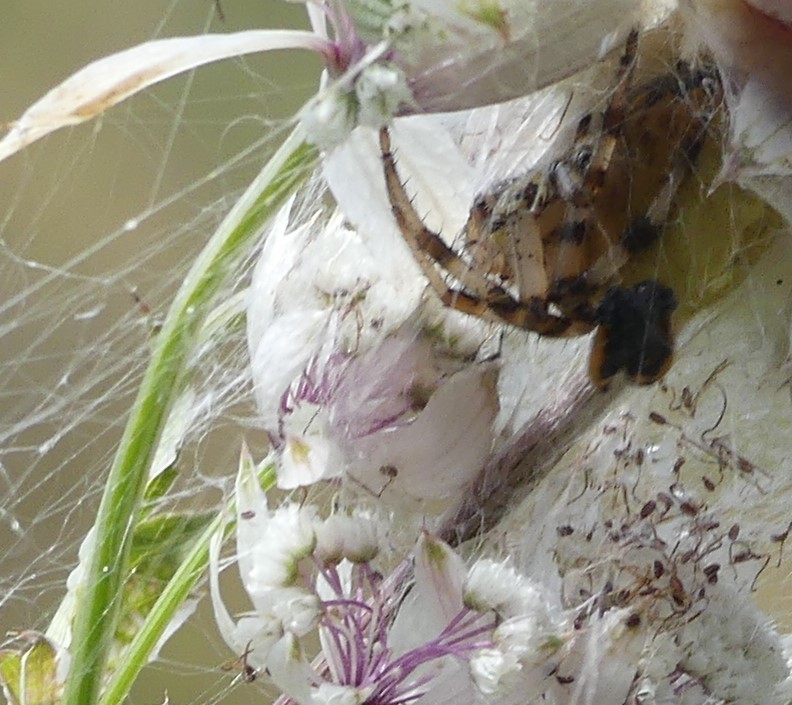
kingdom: Animalia
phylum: Arthropoda
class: Arachnida
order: Araneae
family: Araneidae
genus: Araneus
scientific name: Araneus quadratus
